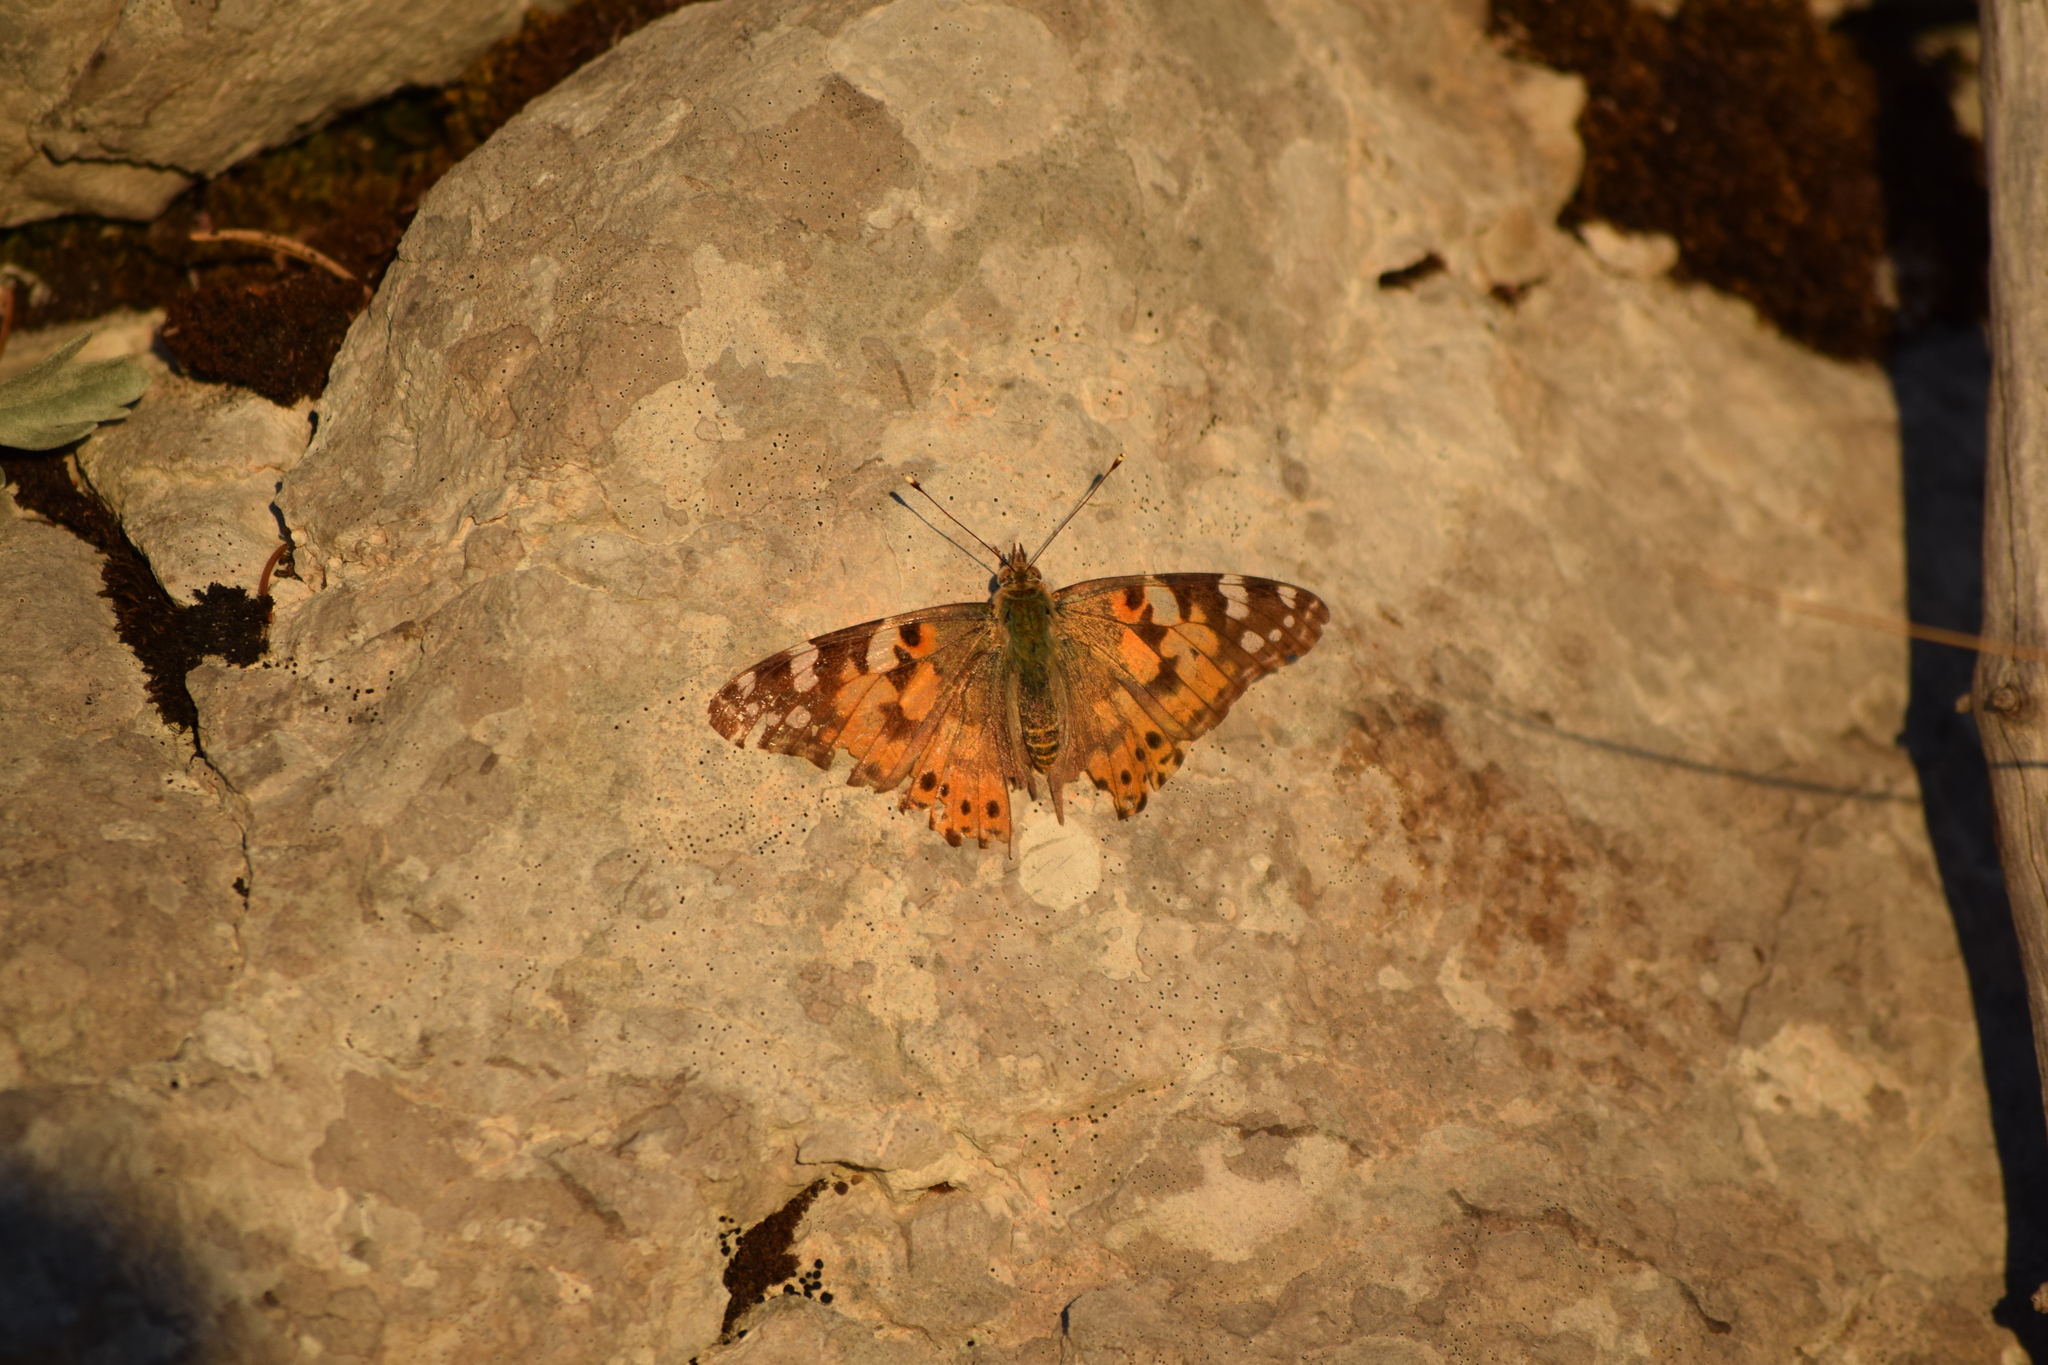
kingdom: Animalia
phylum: Arthropoda
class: Insecta
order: Lepidoptera
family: Nymphalidae
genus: Vanessa
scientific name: Vanessa cardui
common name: Painted lady
